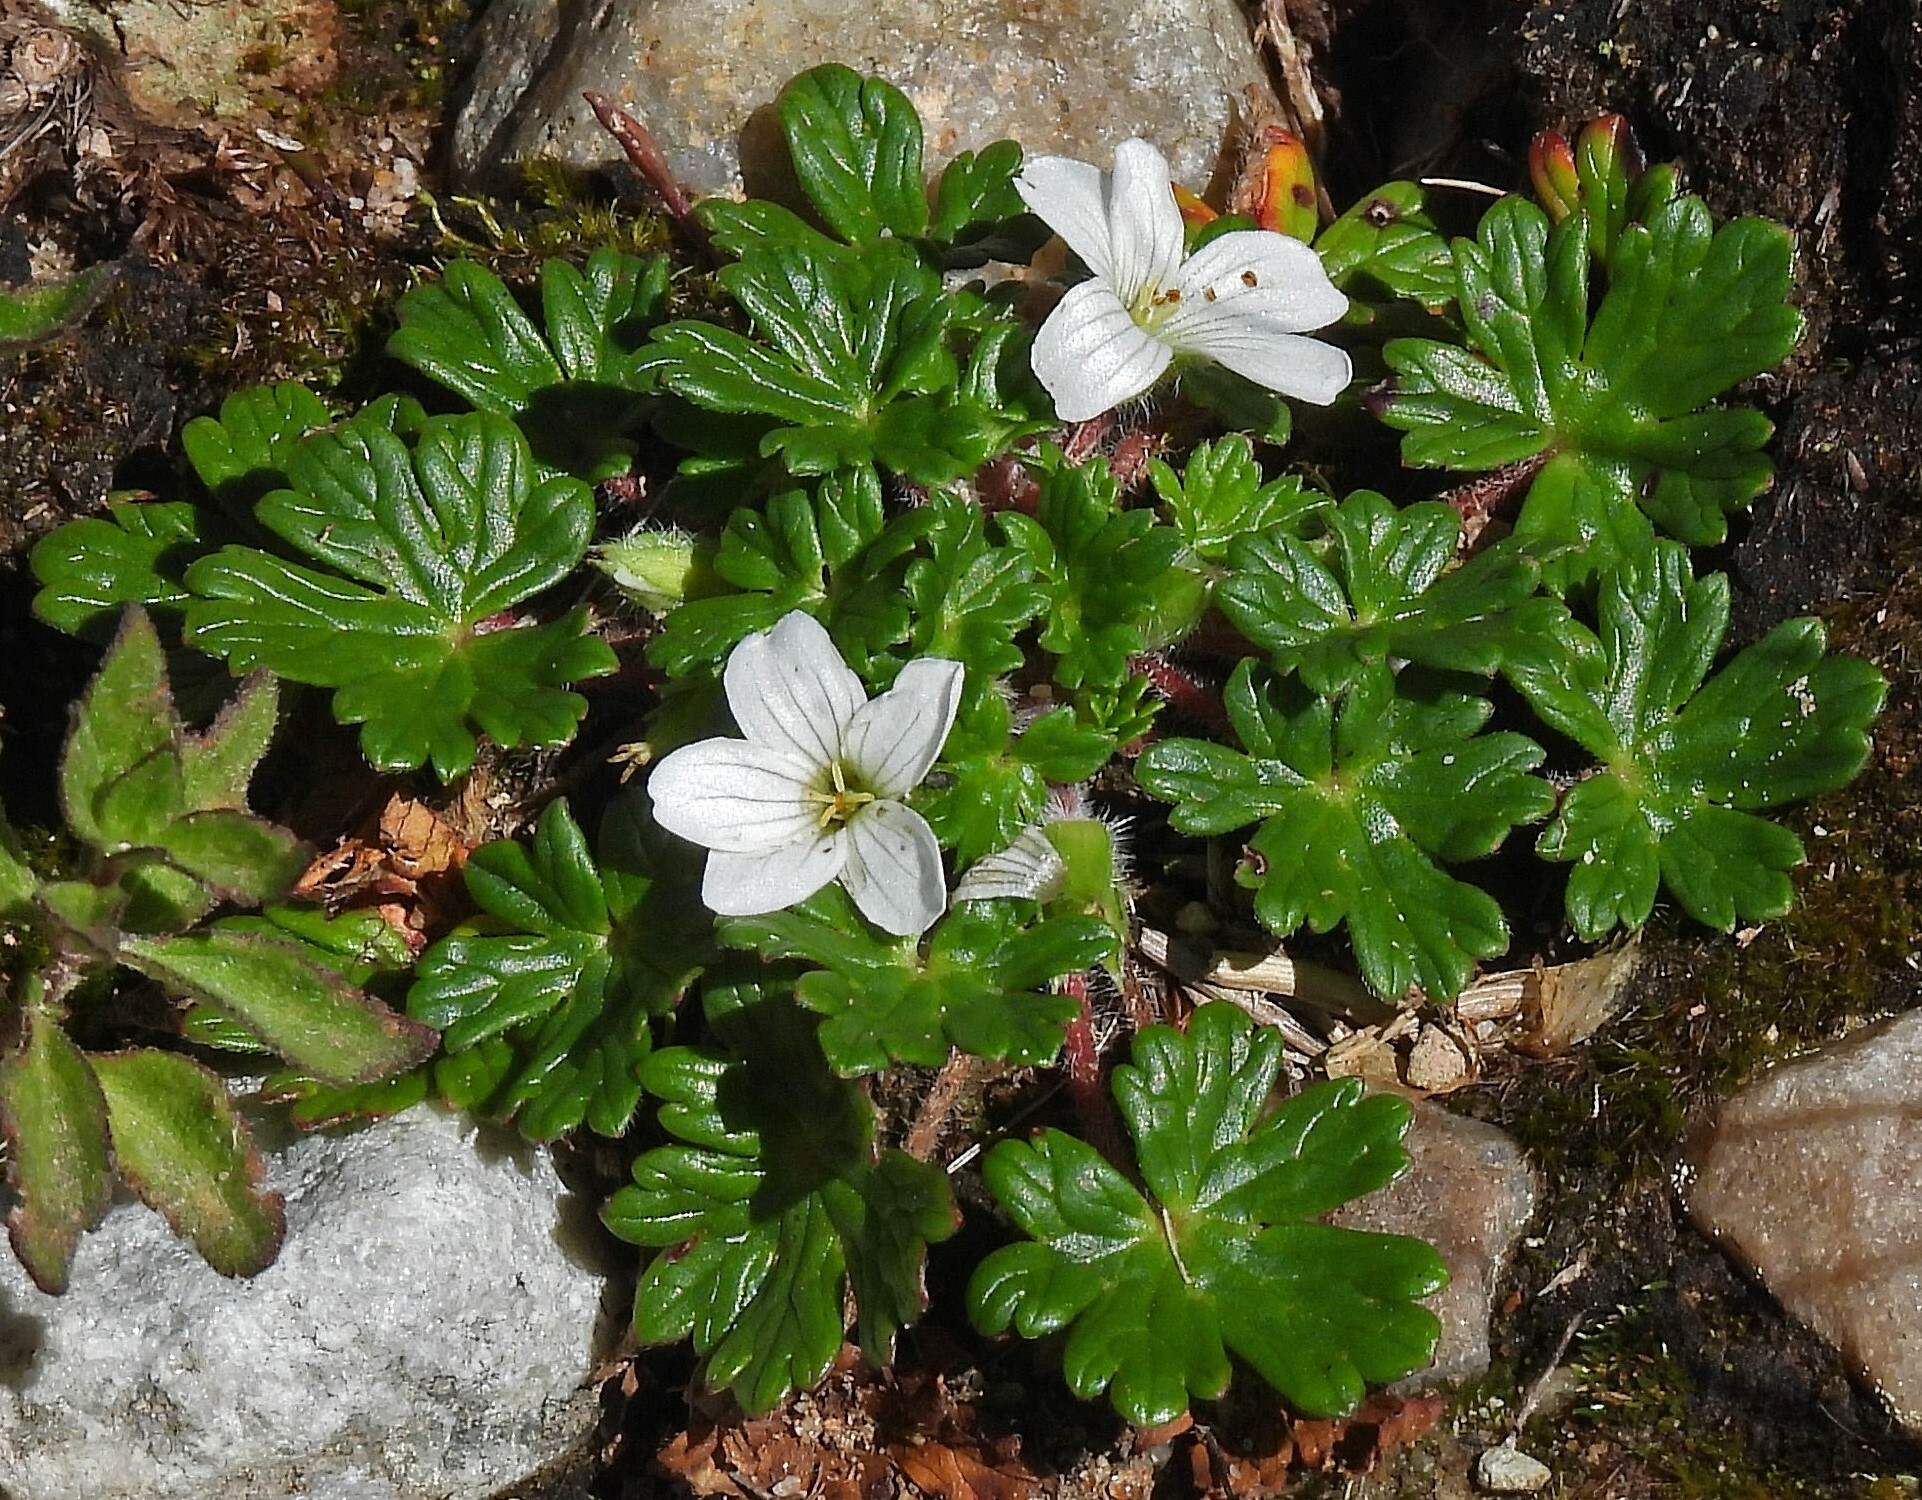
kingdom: Plantae
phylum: Tracheophyta
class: Magnoliopsida
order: Geraniales
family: Geraniaceae
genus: Geranium
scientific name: Geranium sessiliflorum
